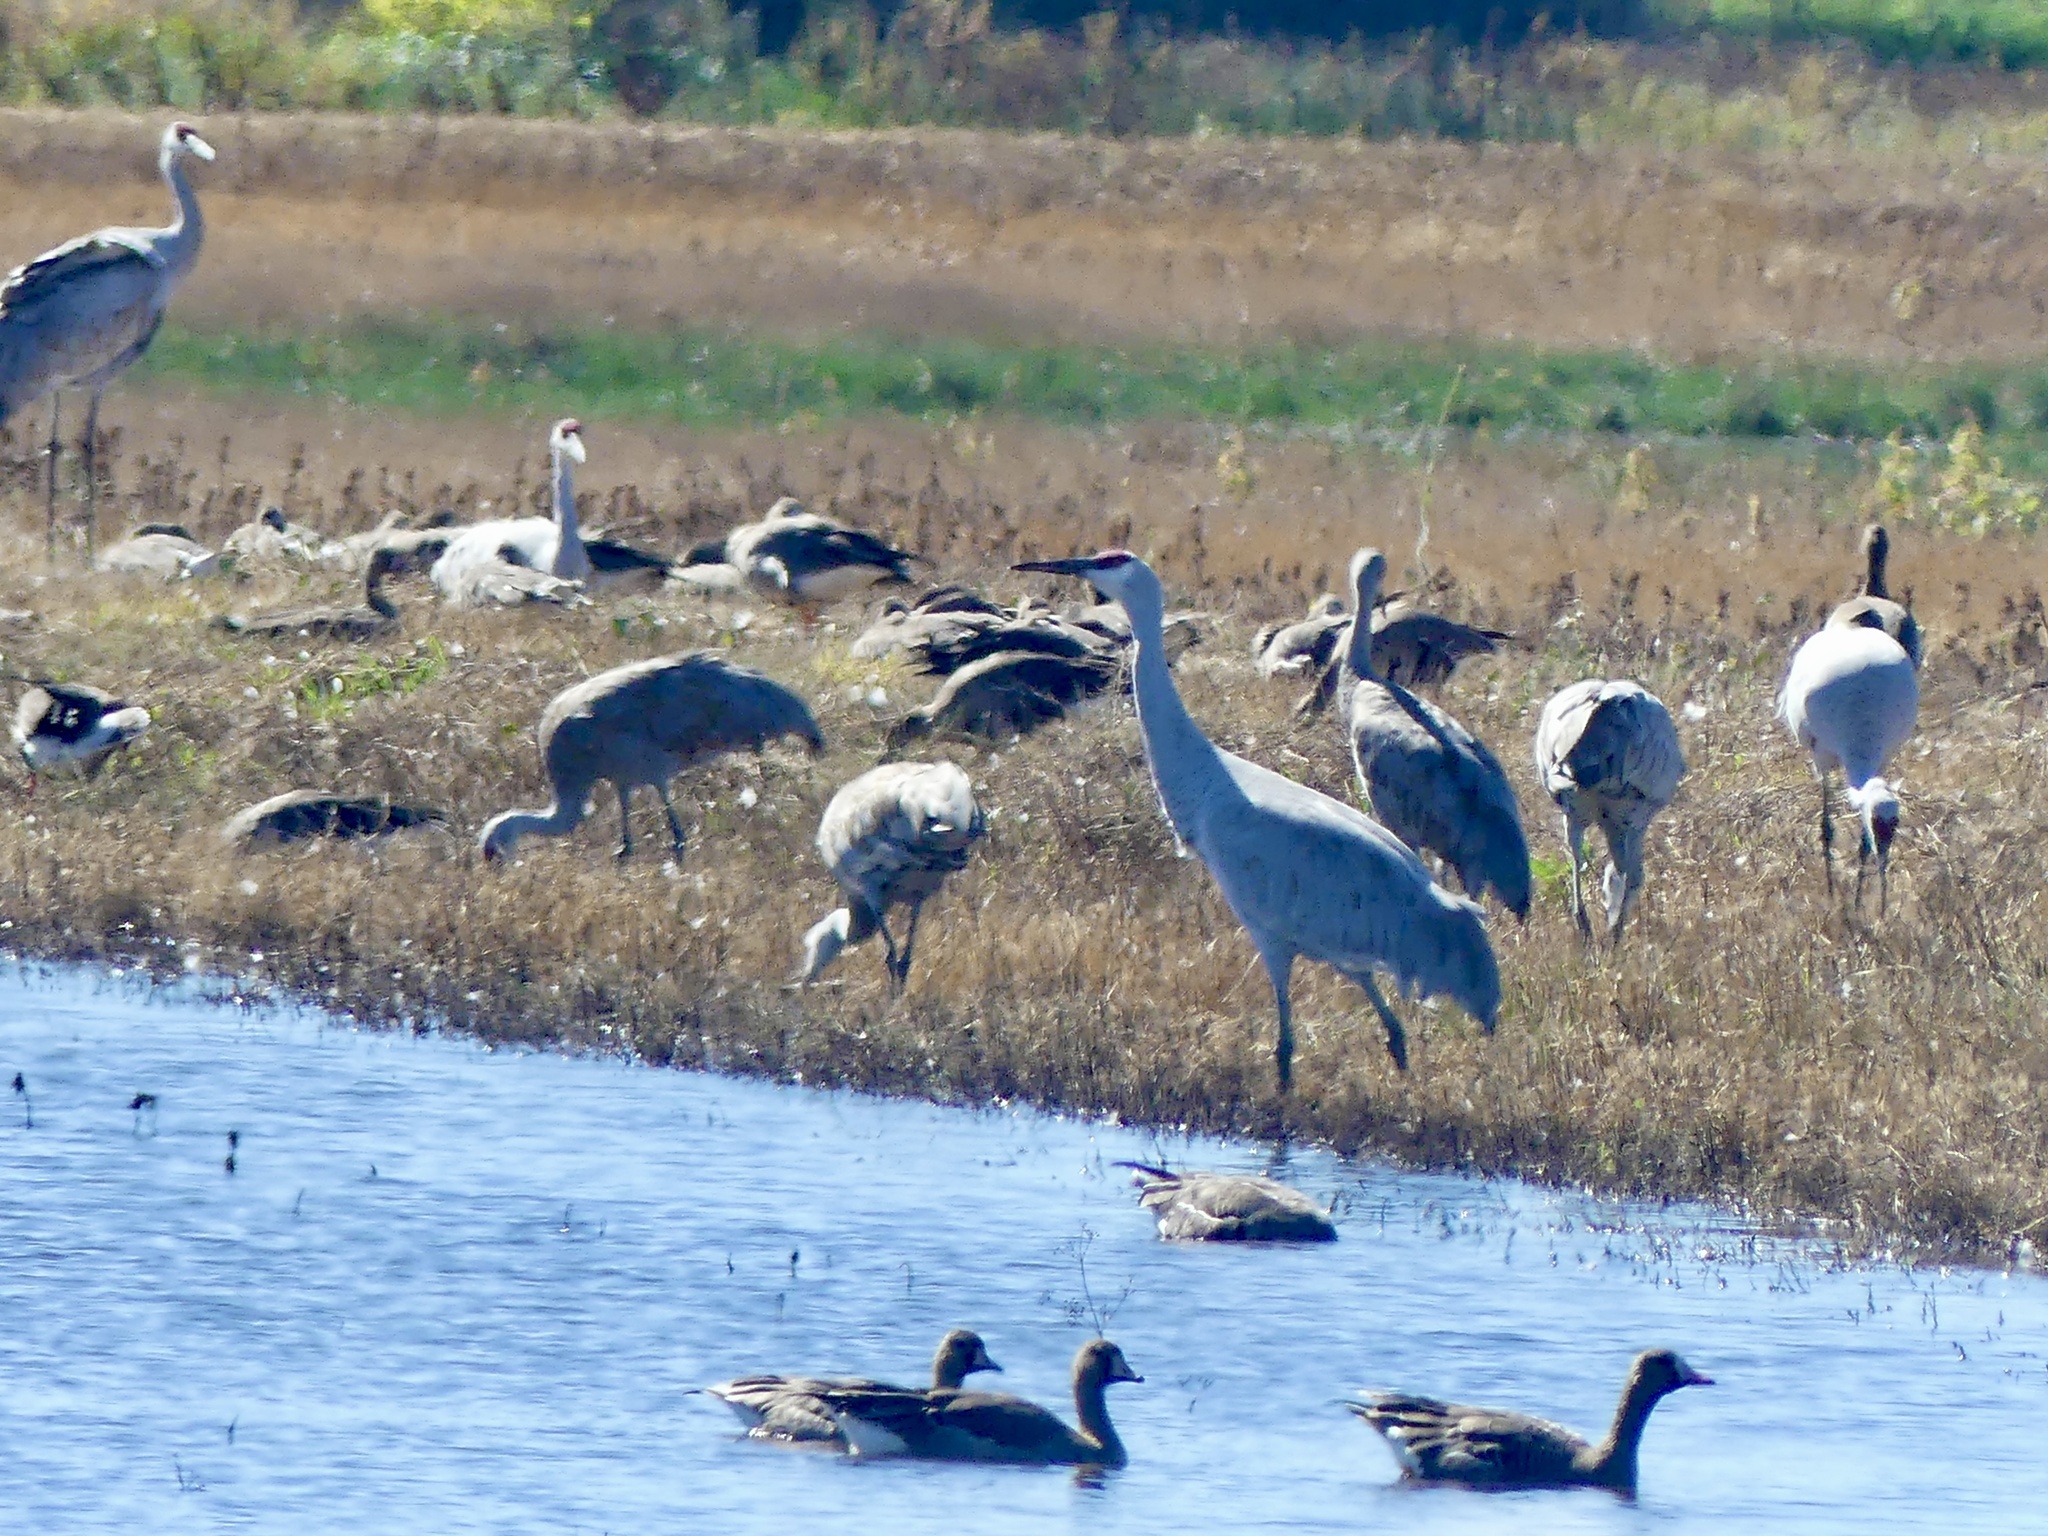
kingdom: Animalia
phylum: Chordata
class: Aves
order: Gruiformes
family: Gruidae
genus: Grus
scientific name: Grus canadensis
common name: Sandhill crane
